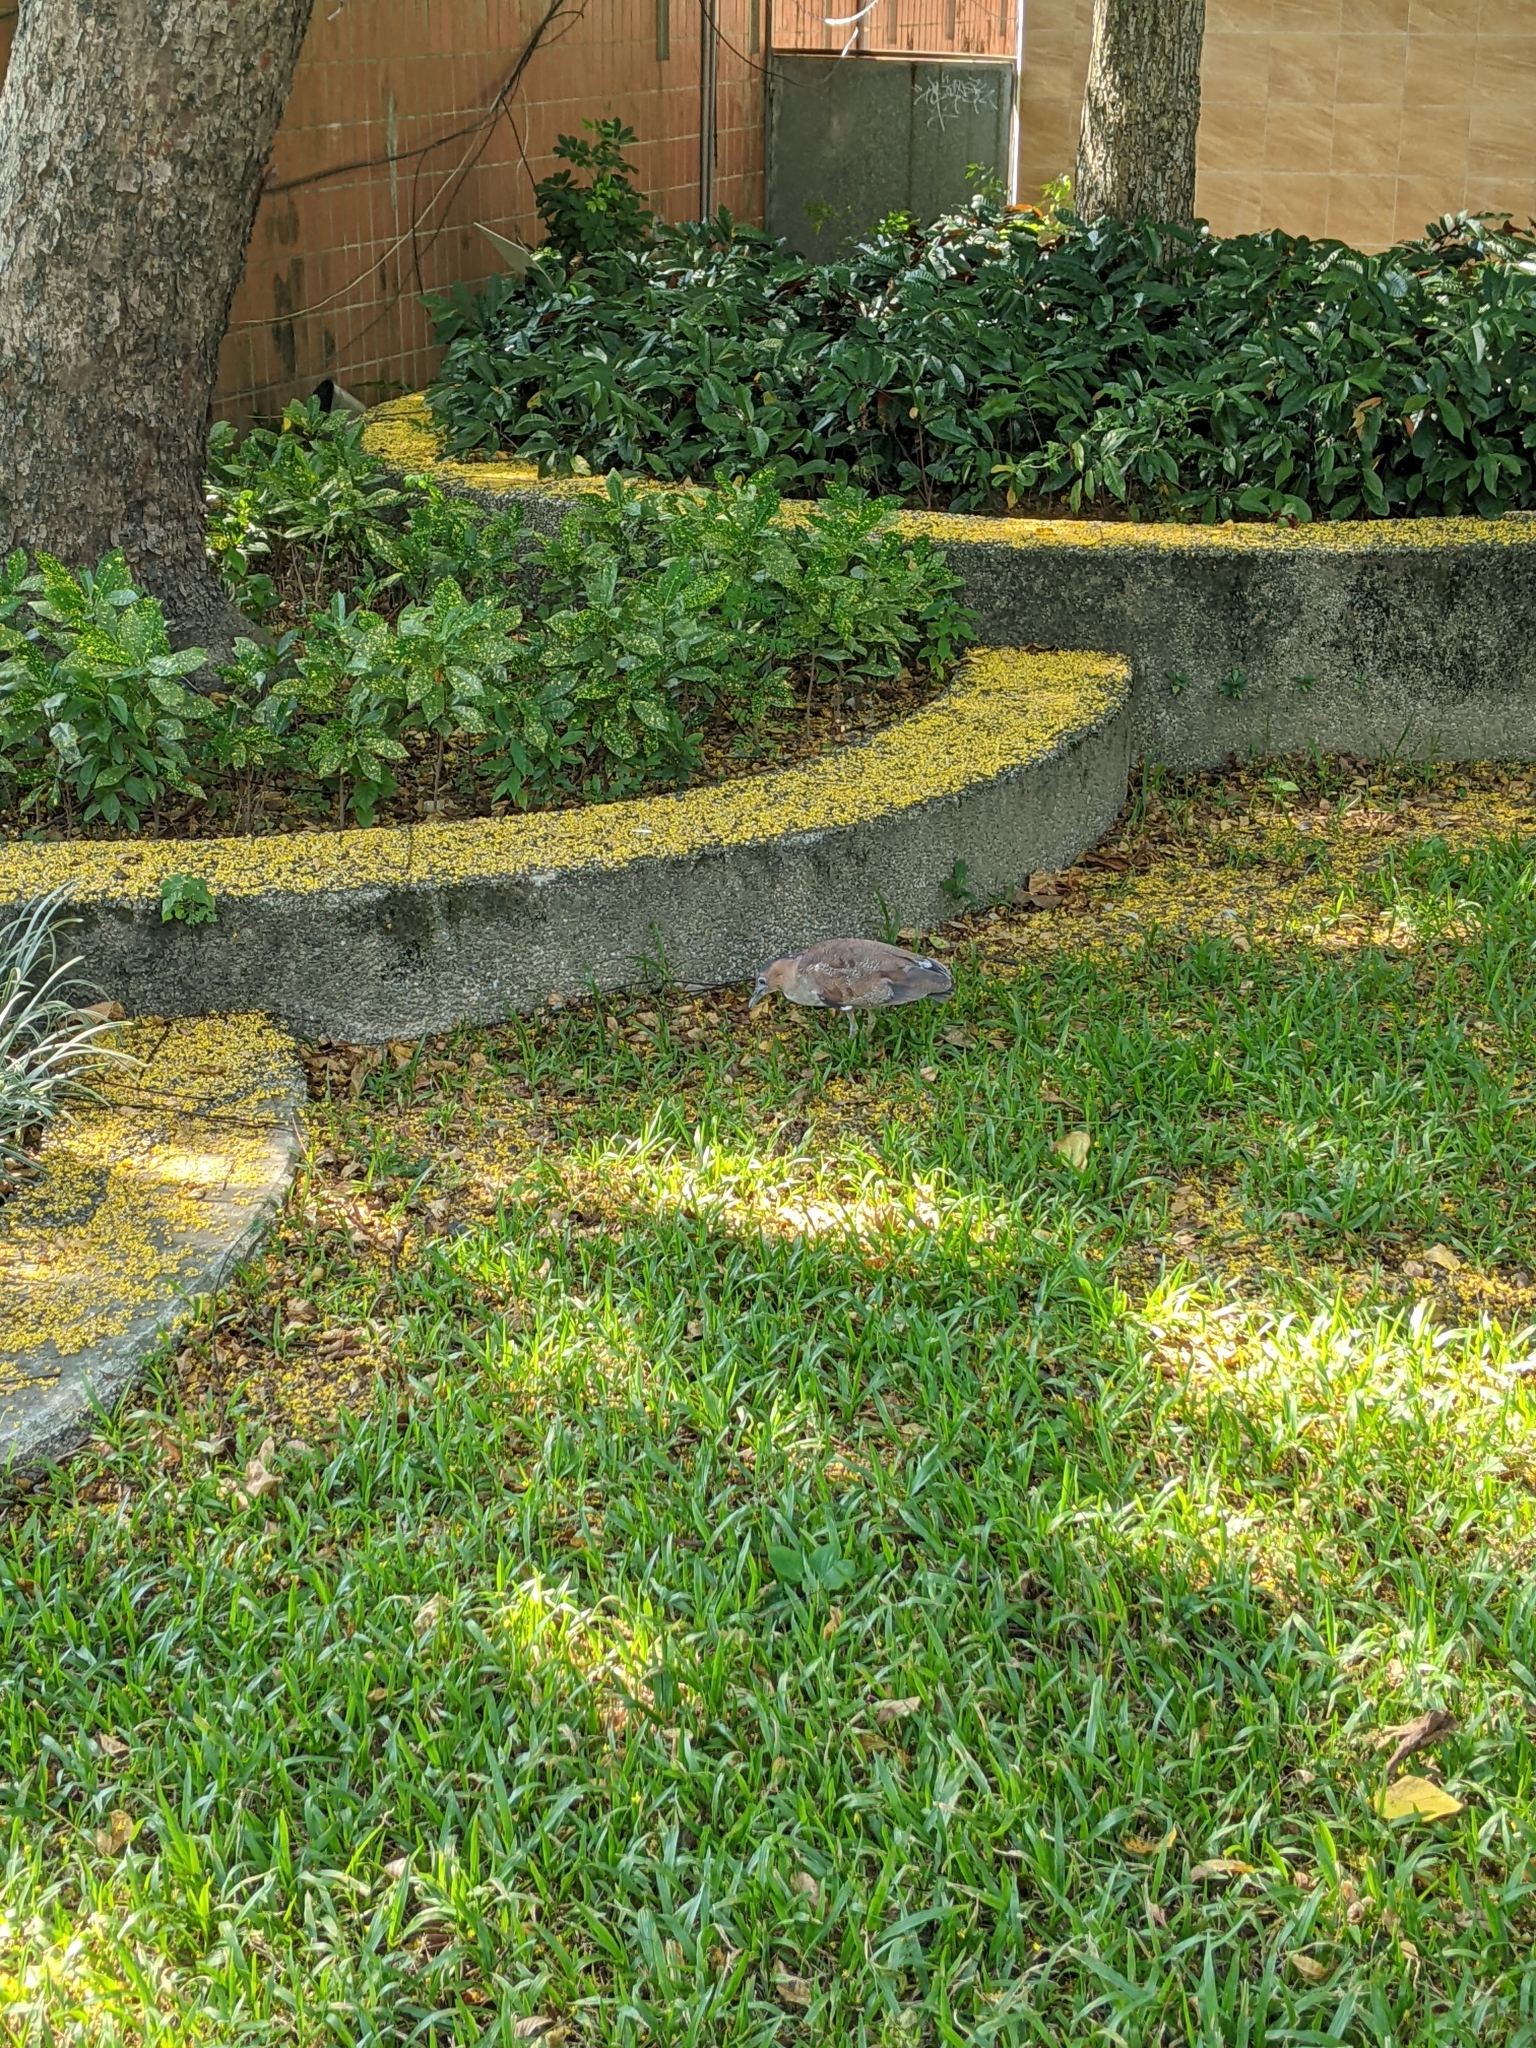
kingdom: Animalia
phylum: Chordata
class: Aves
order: Pelecaniformes
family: Ardeidae
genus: Gorsachius
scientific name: Gorsachius melanolophus
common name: Malayan night heron
